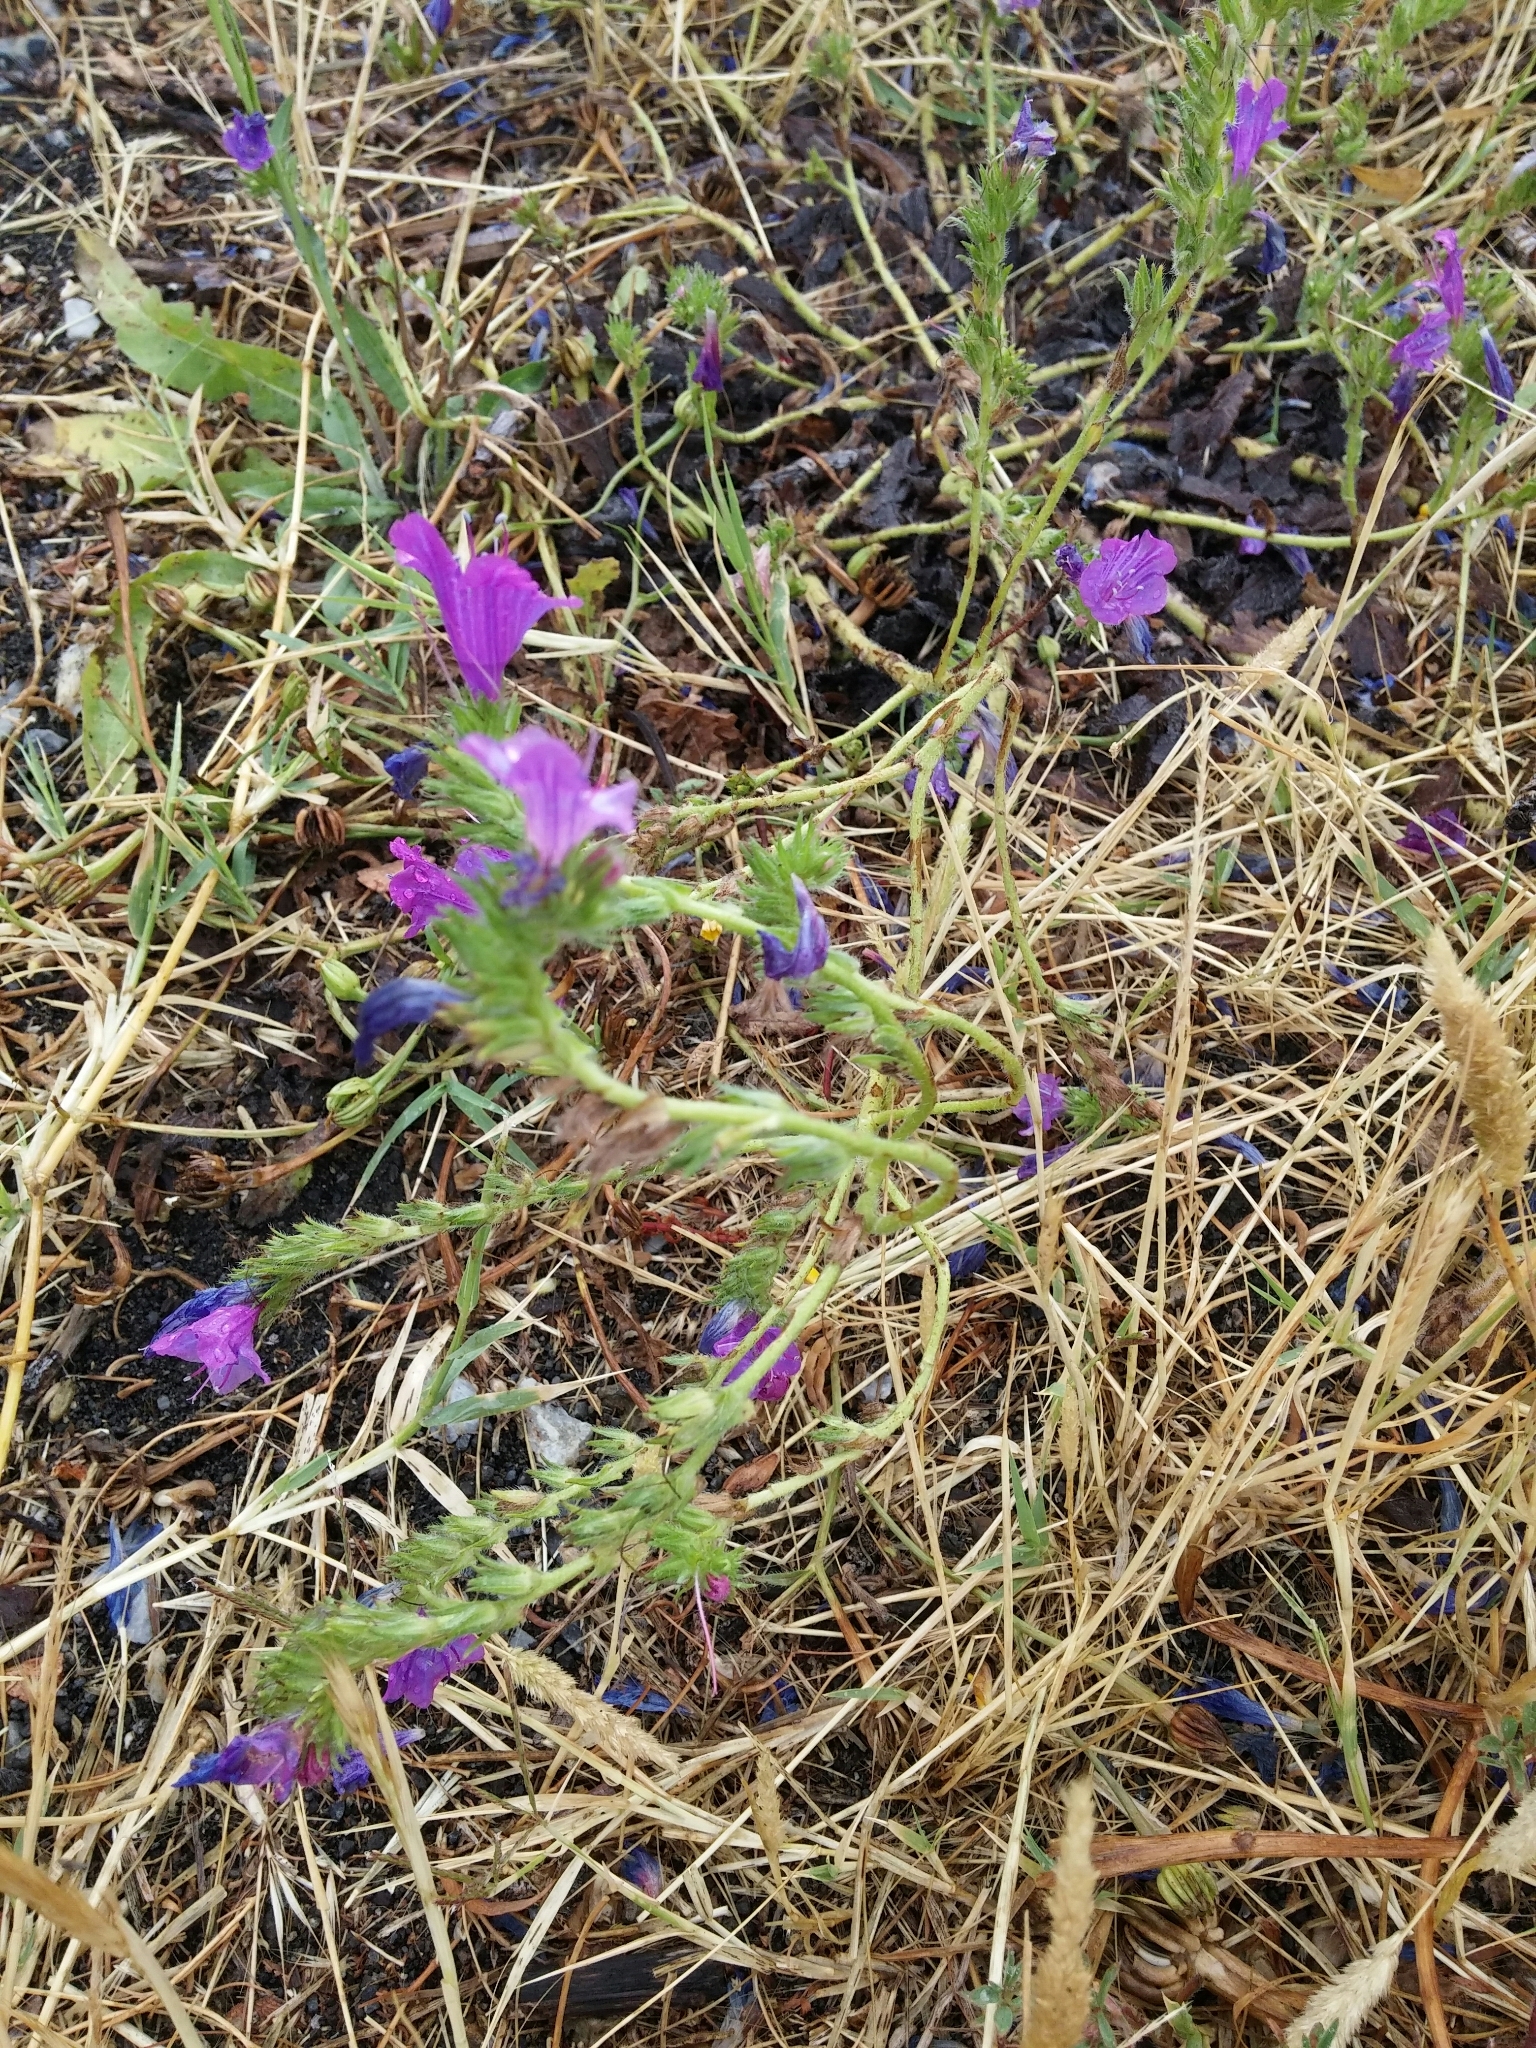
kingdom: Plantae
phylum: Tracheophyta
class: Magnoliopsida
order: Boraginales
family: Boraginaceae
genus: Echium
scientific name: Echium plantagineum
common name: Purple viper's-bugloss
